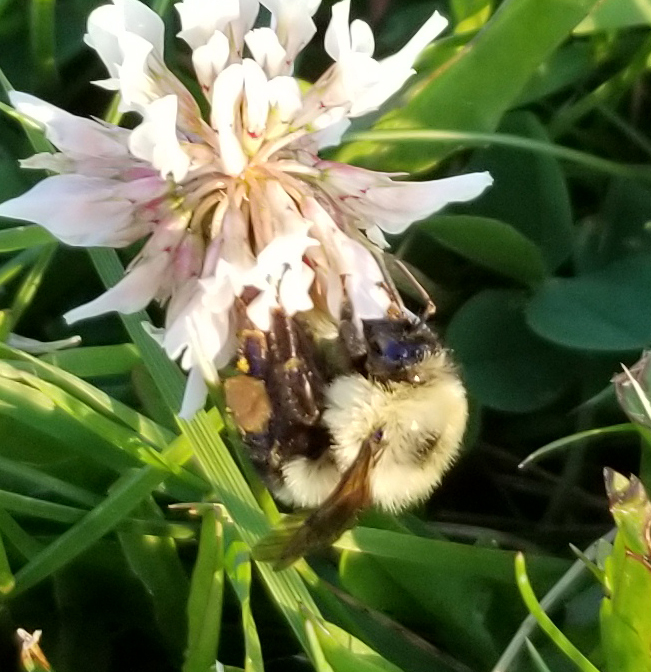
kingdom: Animalia
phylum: Arthropoda
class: Insecta
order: Hymenoptera
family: Apidae
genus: Bombus
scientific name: Bombus bimaculatus
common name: Two-spotted bumble bee
